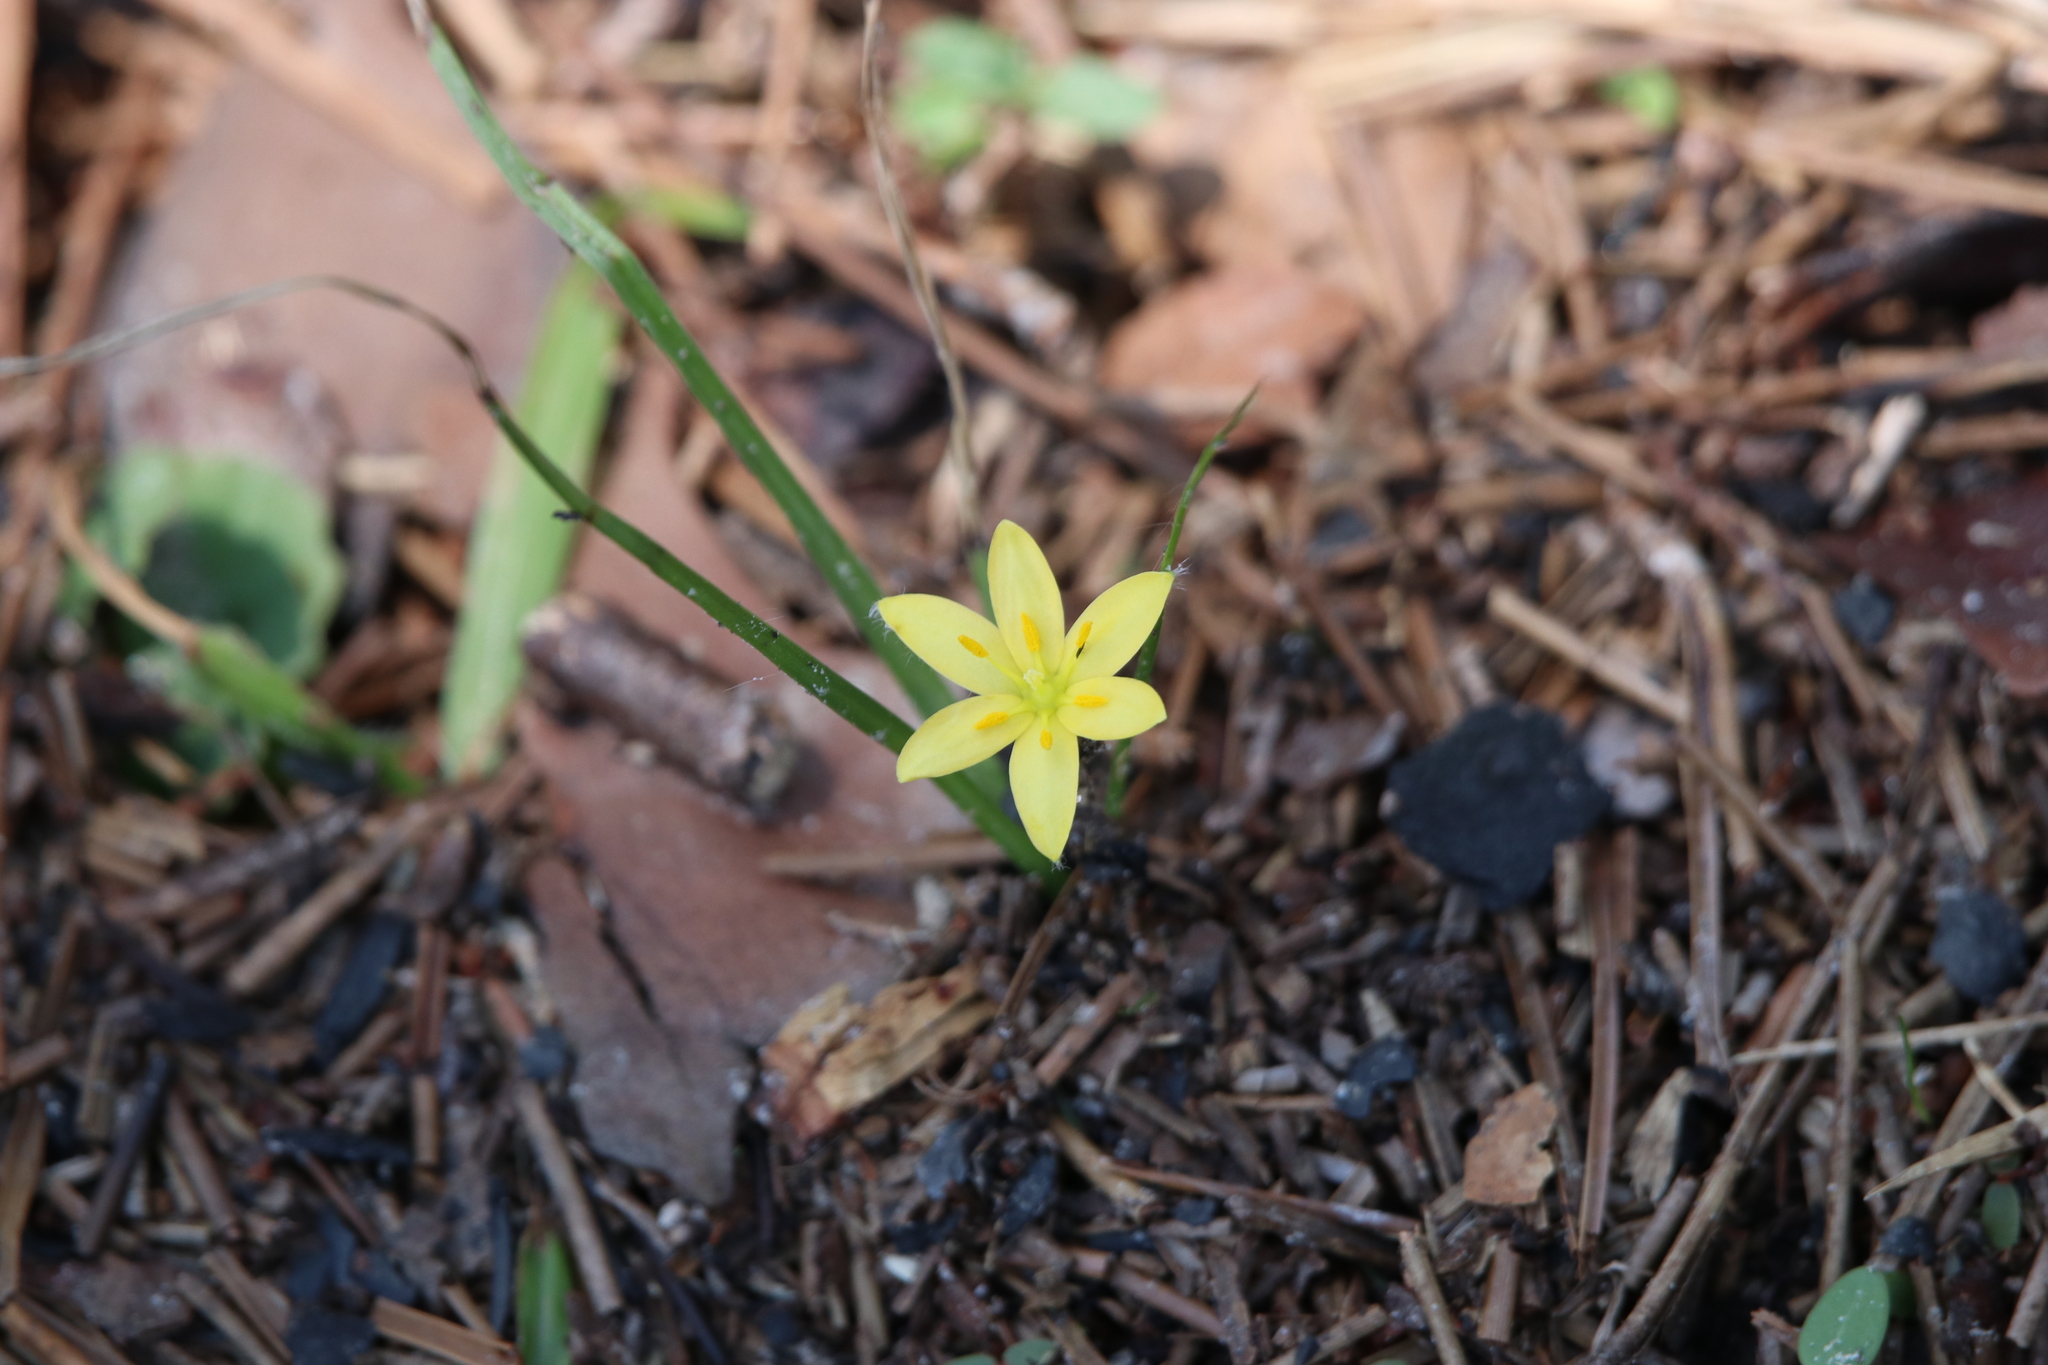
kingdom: Plantae
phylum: Tracheophyta
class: Liliopsida
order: Asparagales
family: Hypoxidaceae
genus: Hypoxis
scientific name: Hypoxis hirsuta
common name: Common goldstar
